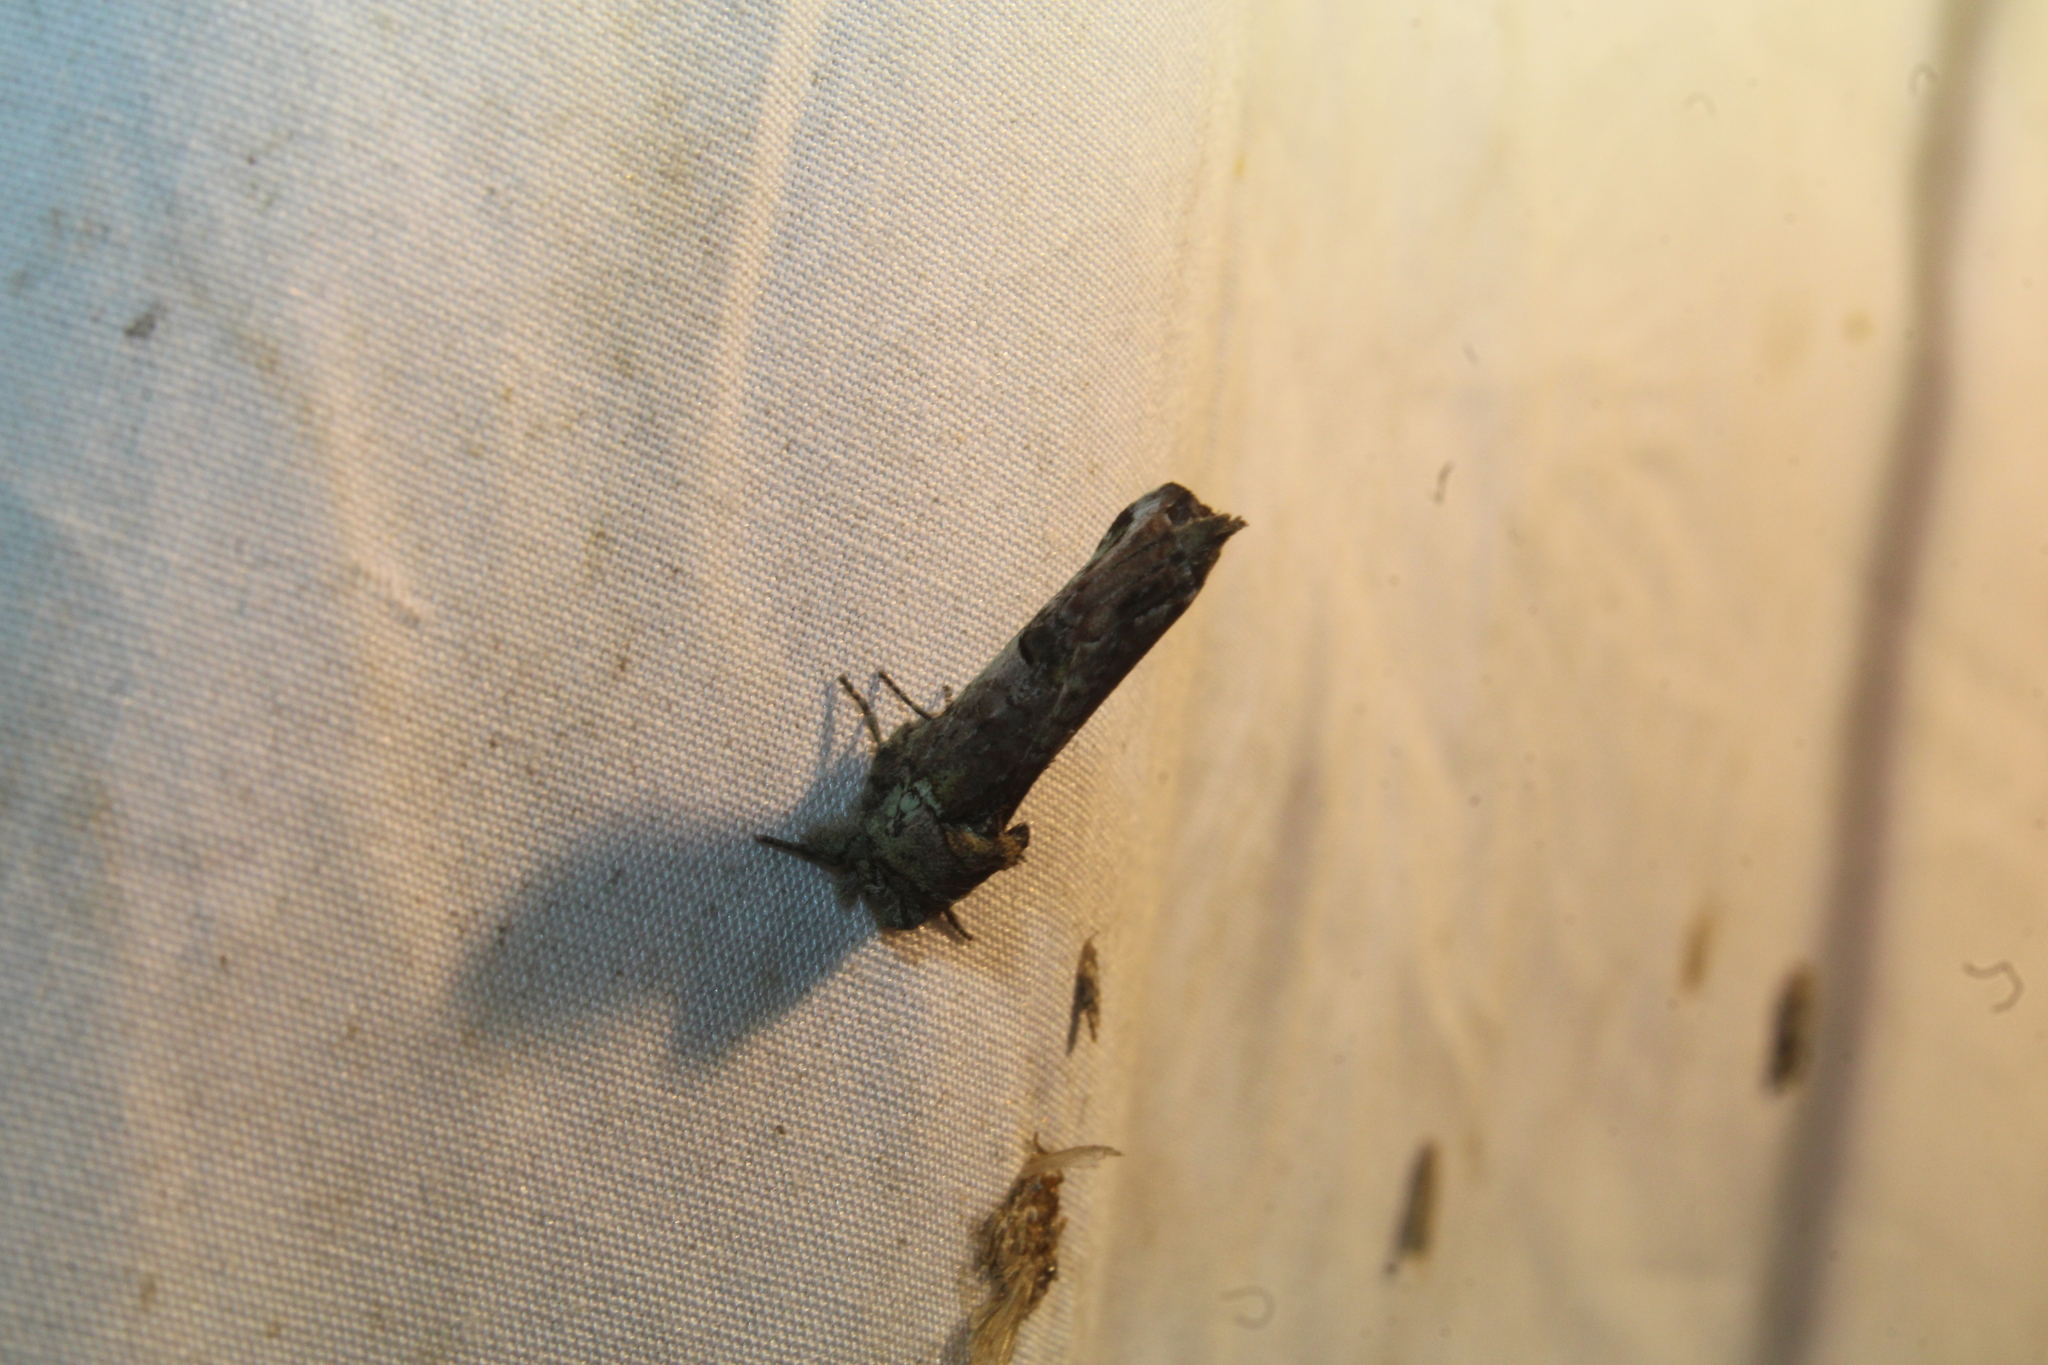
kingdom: Animalia
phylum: Arthropoda
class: Insecta
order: Lepidoptera
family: Notodontidae
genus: Schizura
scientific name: Schizura
